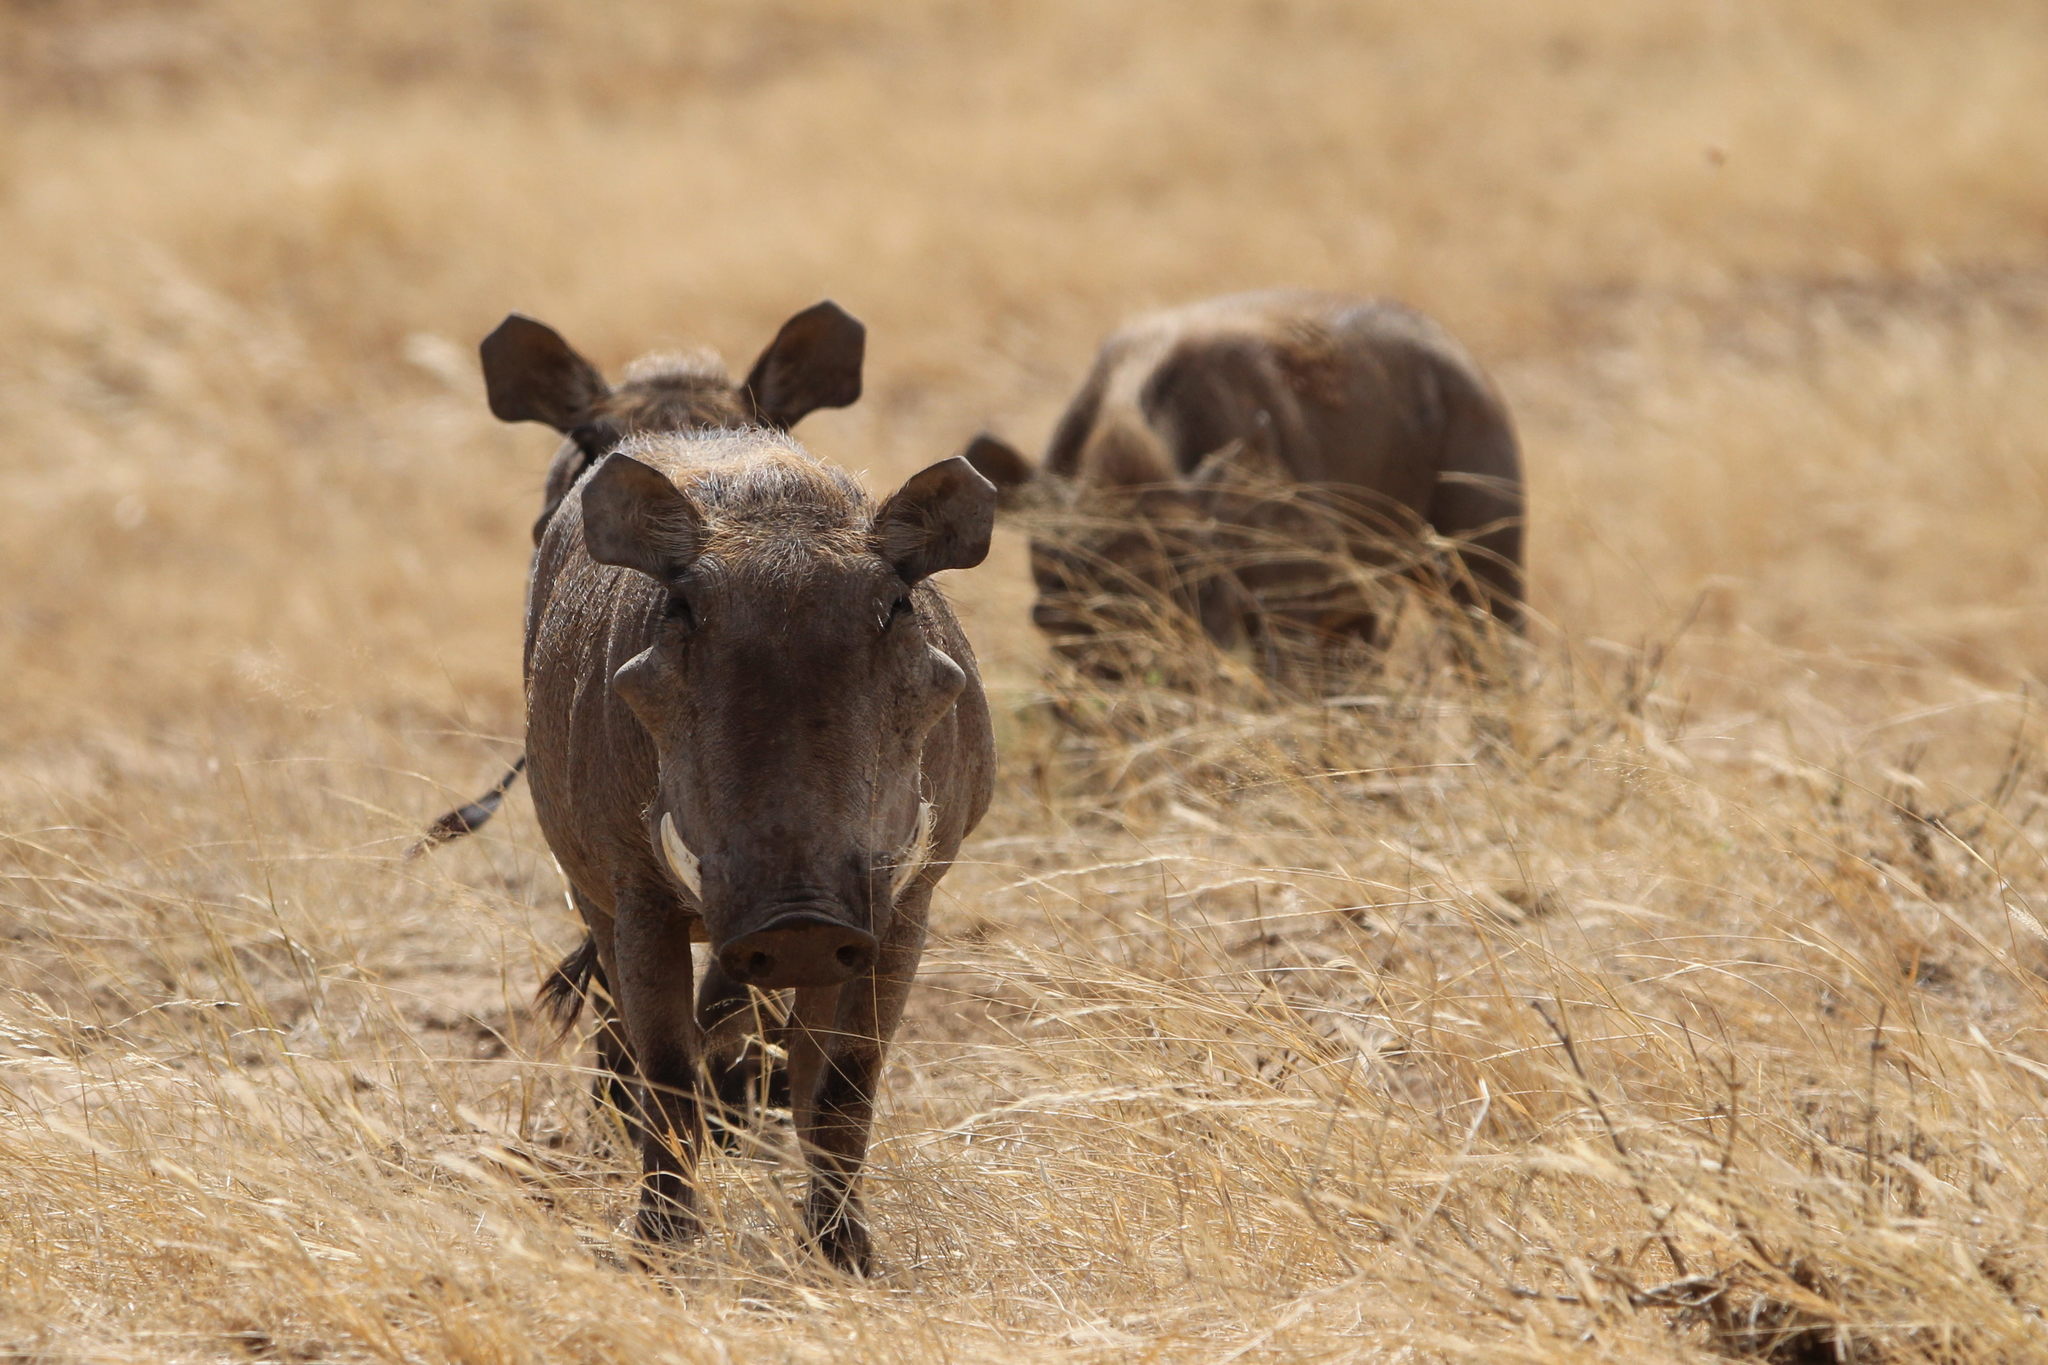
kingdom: Animalia
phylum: Chordata
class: Mammalia
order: Artiodactyla
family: Suidae
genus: Phacochoerus
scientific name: Phacochoerus aethiopicus
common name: Desert warthog
